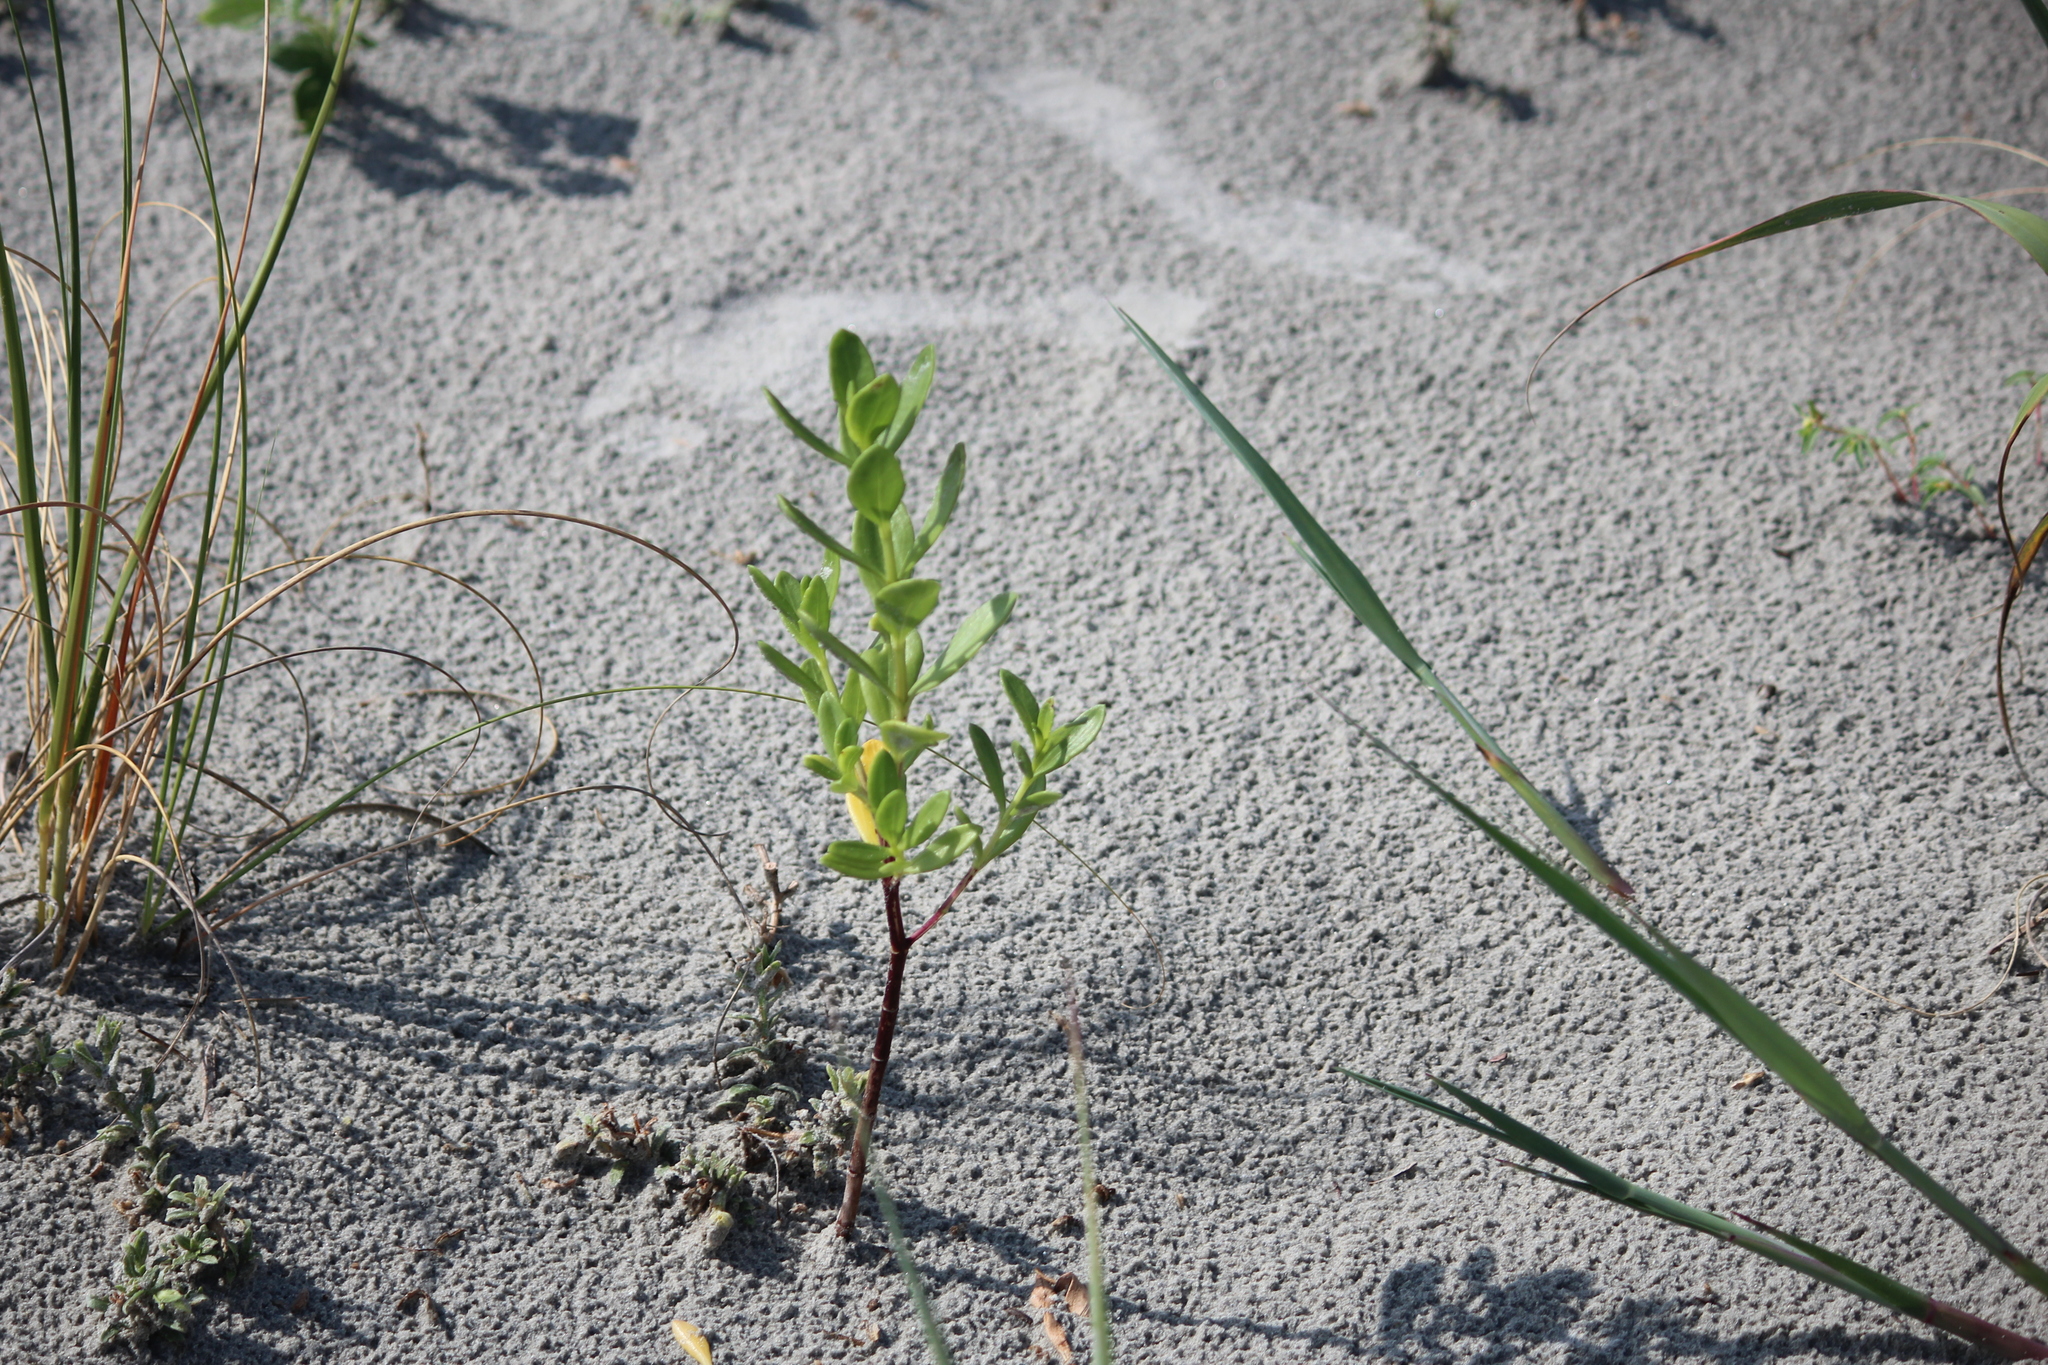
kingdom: Plantae
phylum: Tracheophyta
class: Magnoliopsida
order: Asterales
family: Asteraceae
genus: Iva
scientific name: Iva imbricata
